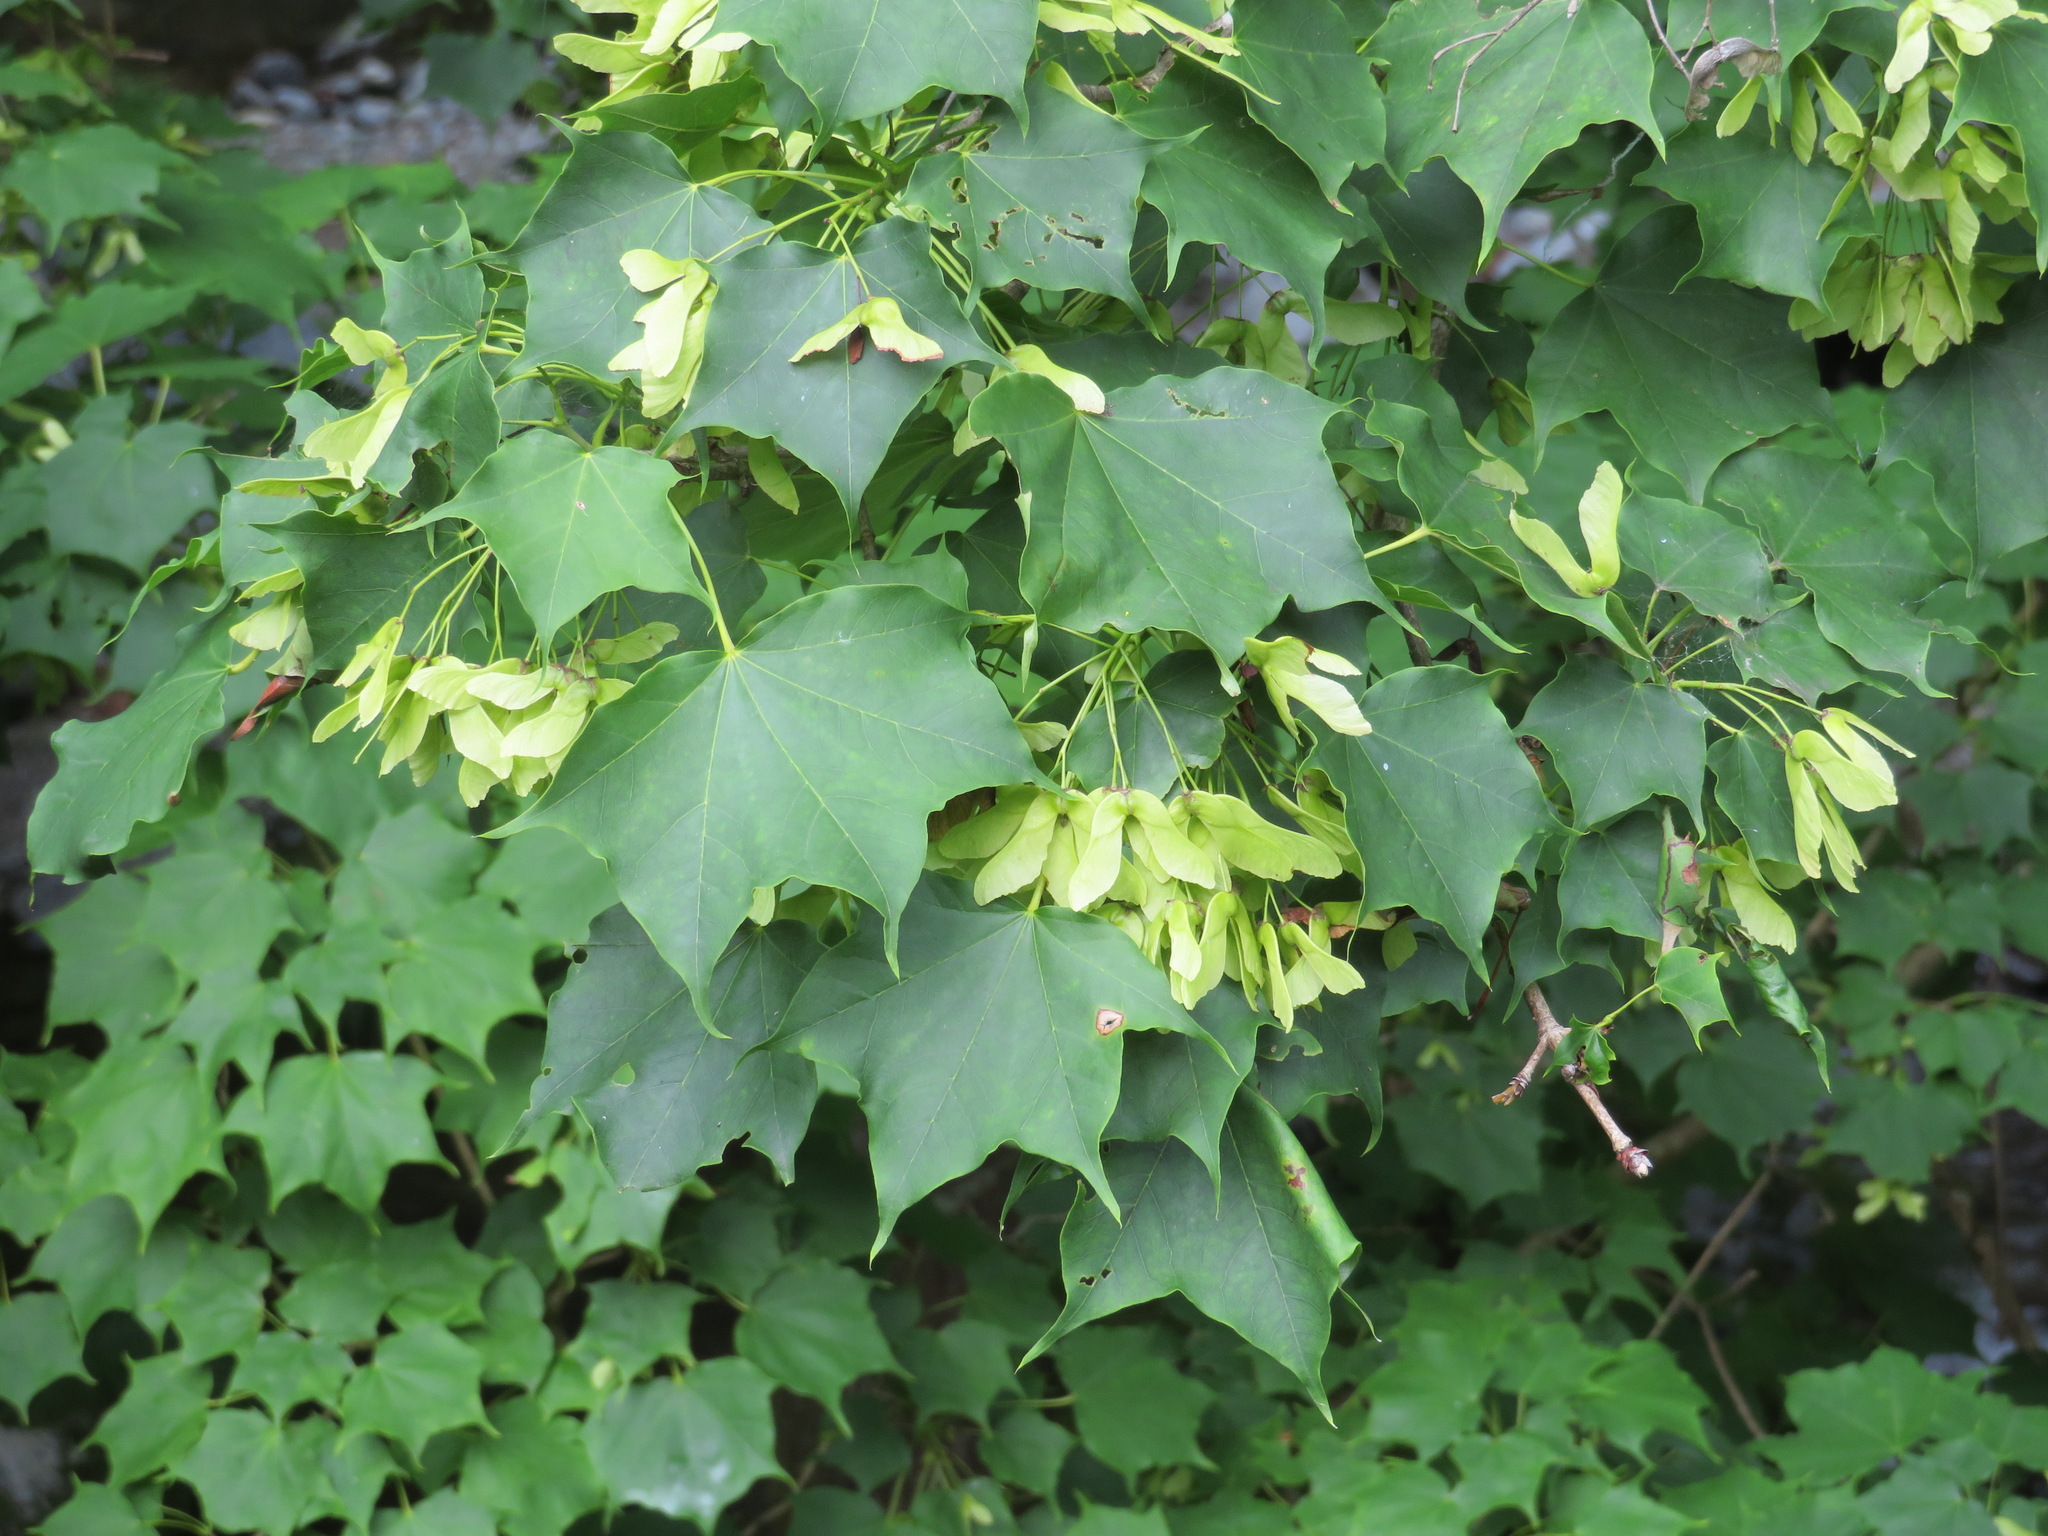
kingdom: Plantae
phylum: Tracheophyta
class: Magnoliopsida
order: Sapindales
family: Sapindaceae
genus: Acer
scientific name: Acer pictum
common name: The painted maple
